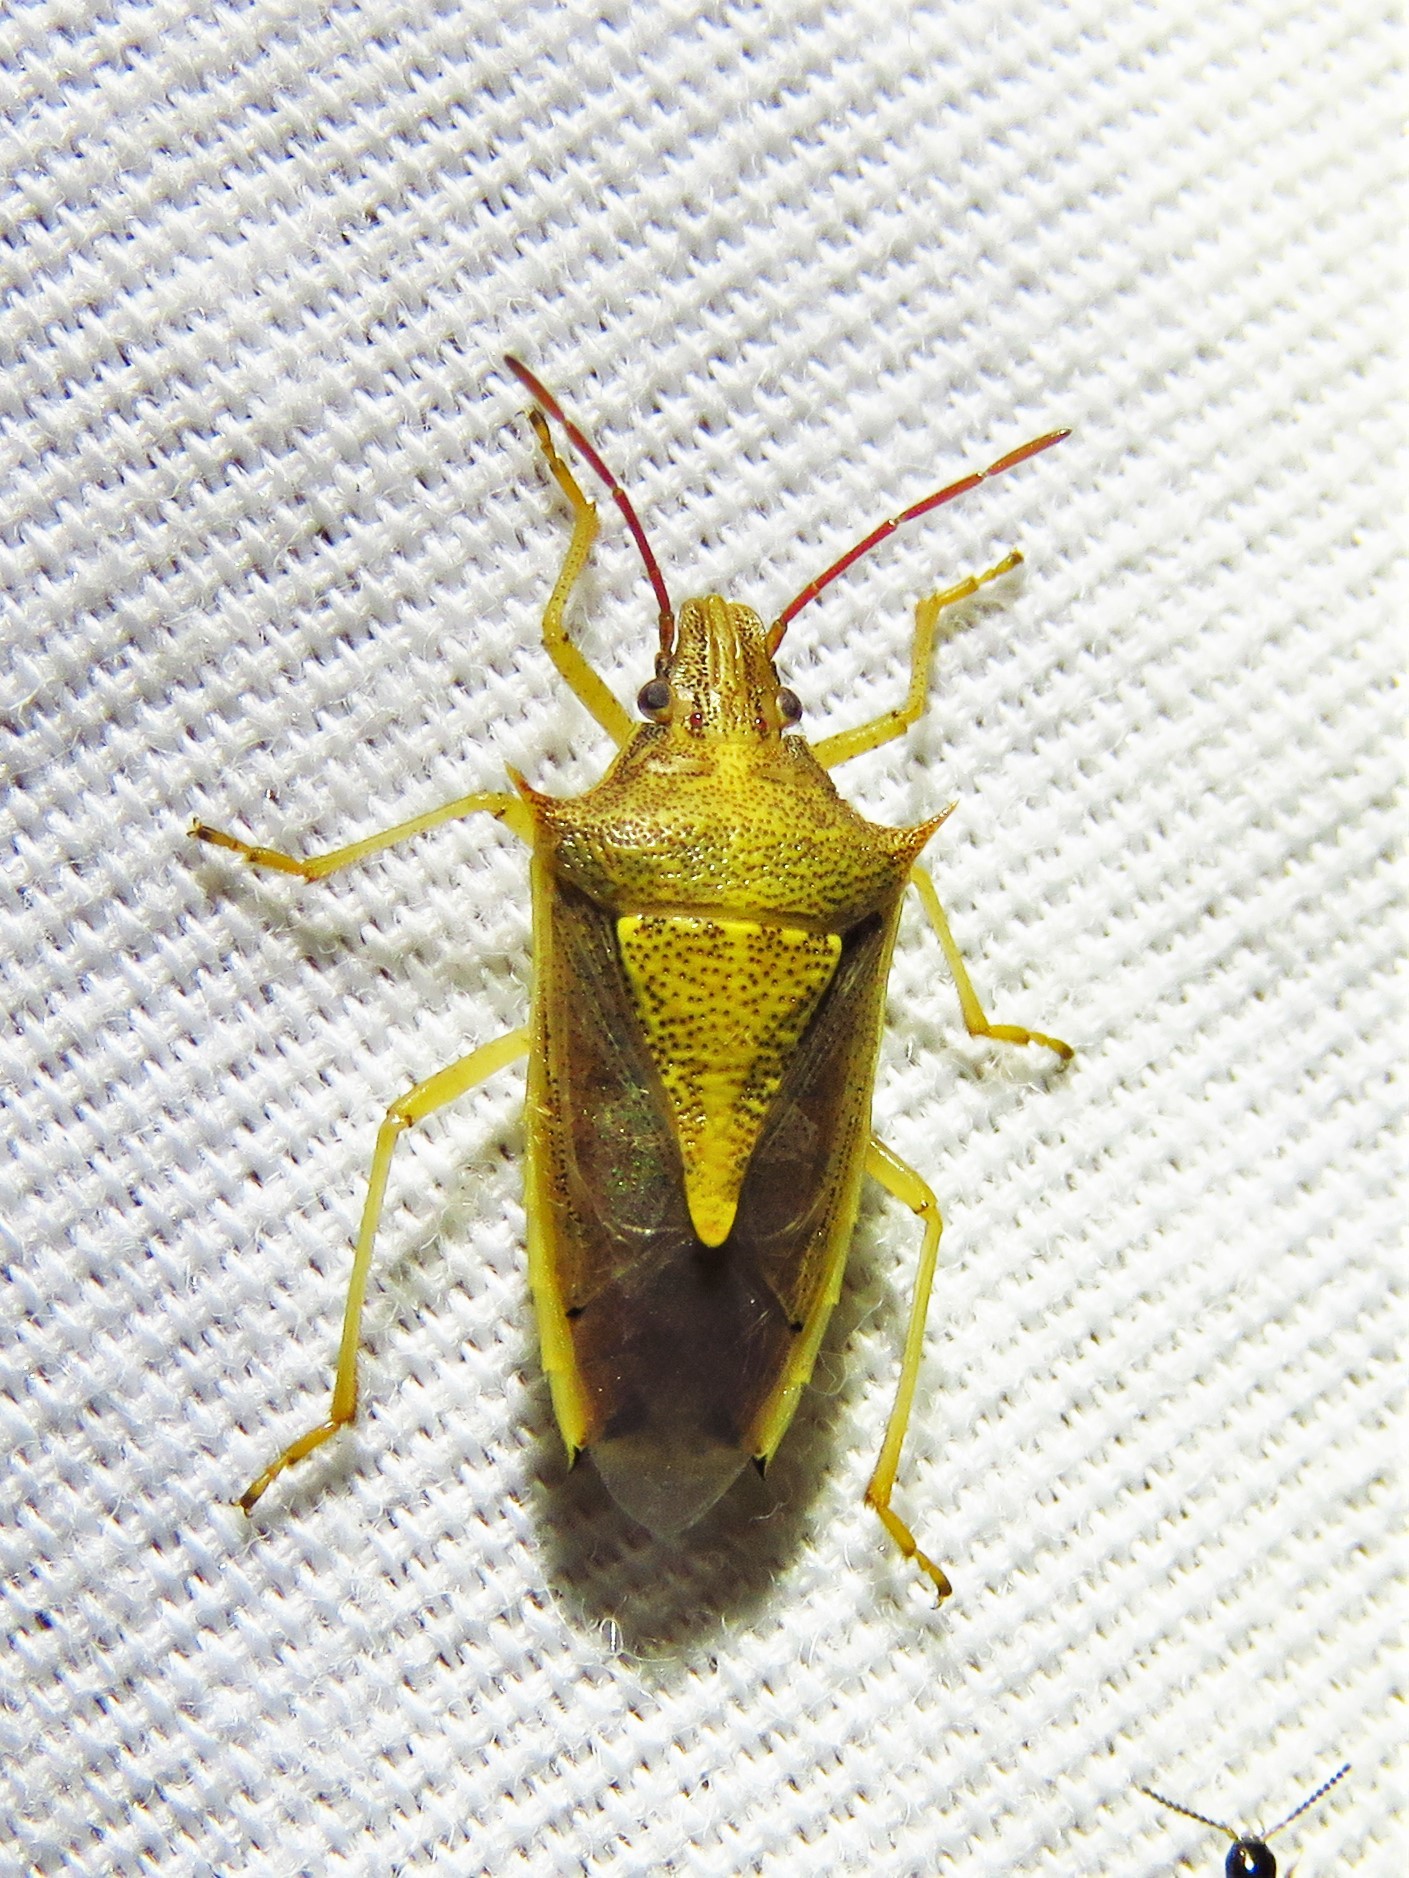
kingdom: Animalia
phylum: Arthropoda
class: Insecta
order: Hemiptera
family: Pentatomidae
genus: Oebalus
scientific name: Oebalus pugnax
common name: Rice stink bug
